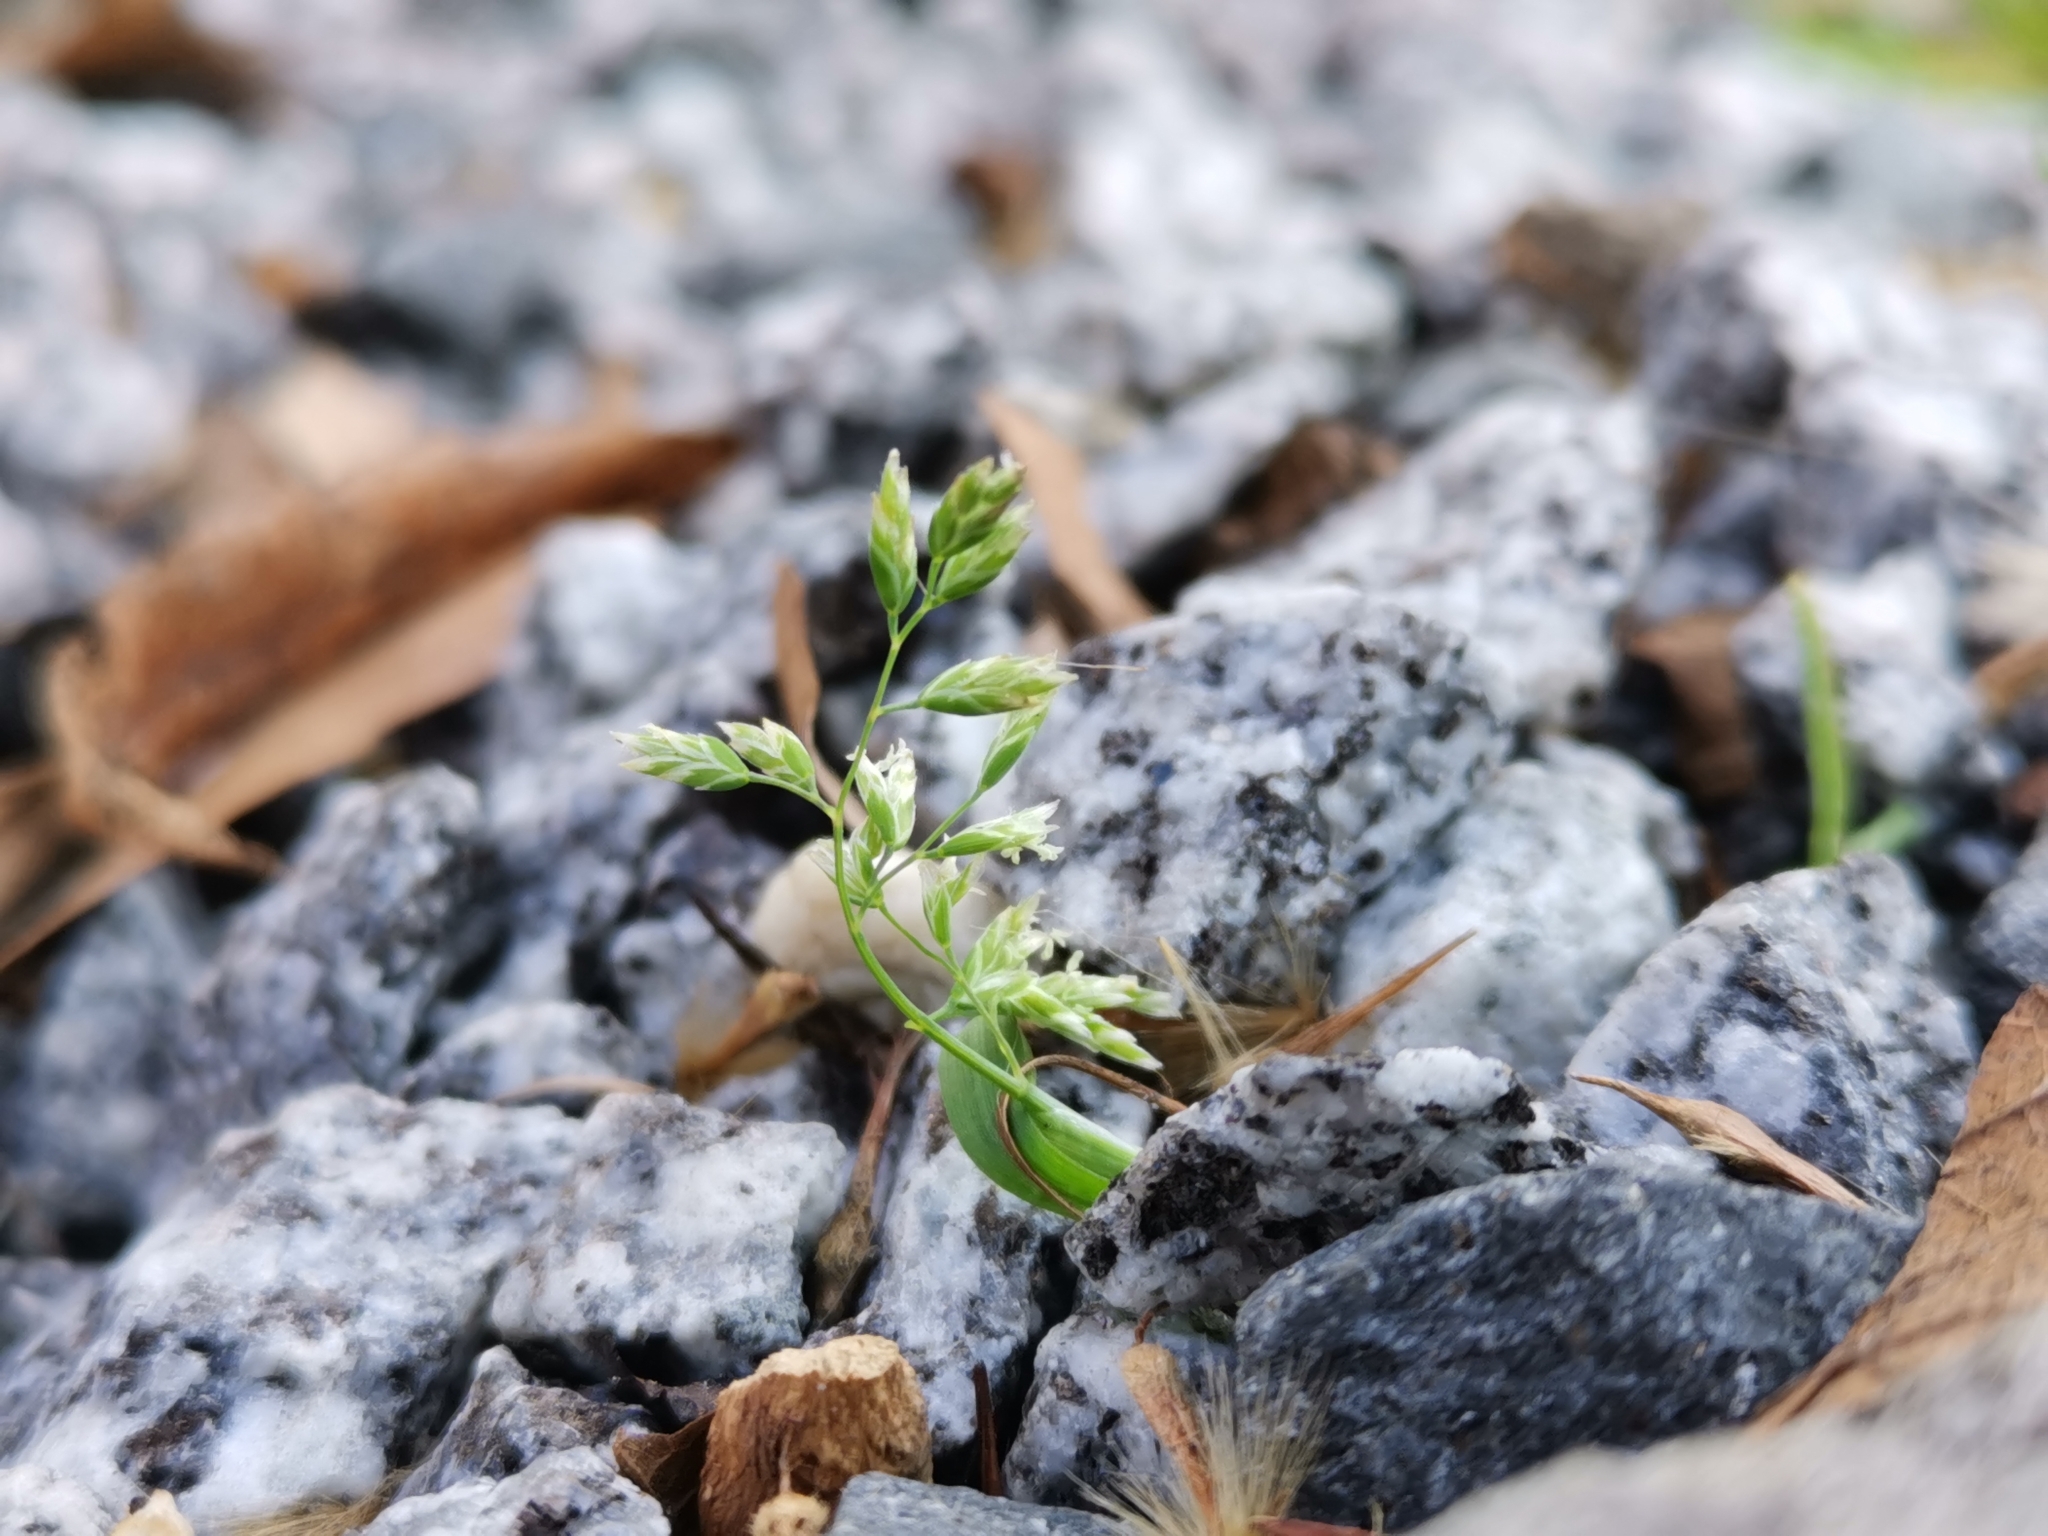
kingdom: Plantae
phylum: Tracheophyta
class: Liliopsida
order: Poales
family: Poaceae
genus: Poa
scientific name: Poa annua
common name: Annual bluegrass
